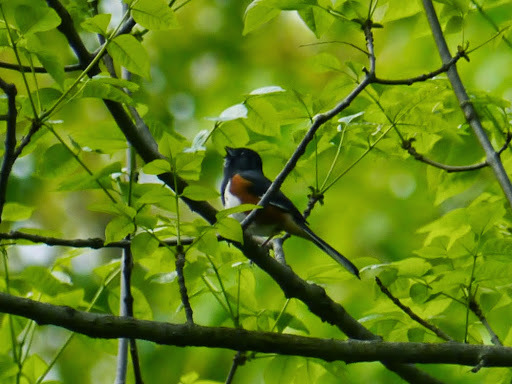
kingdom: Animalia
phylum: Chordata
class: Aves
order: Passeriformes
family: Passerellidae
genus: Pipilo
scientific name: Pipilo erythrophthalmus
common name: Eastern towhee
